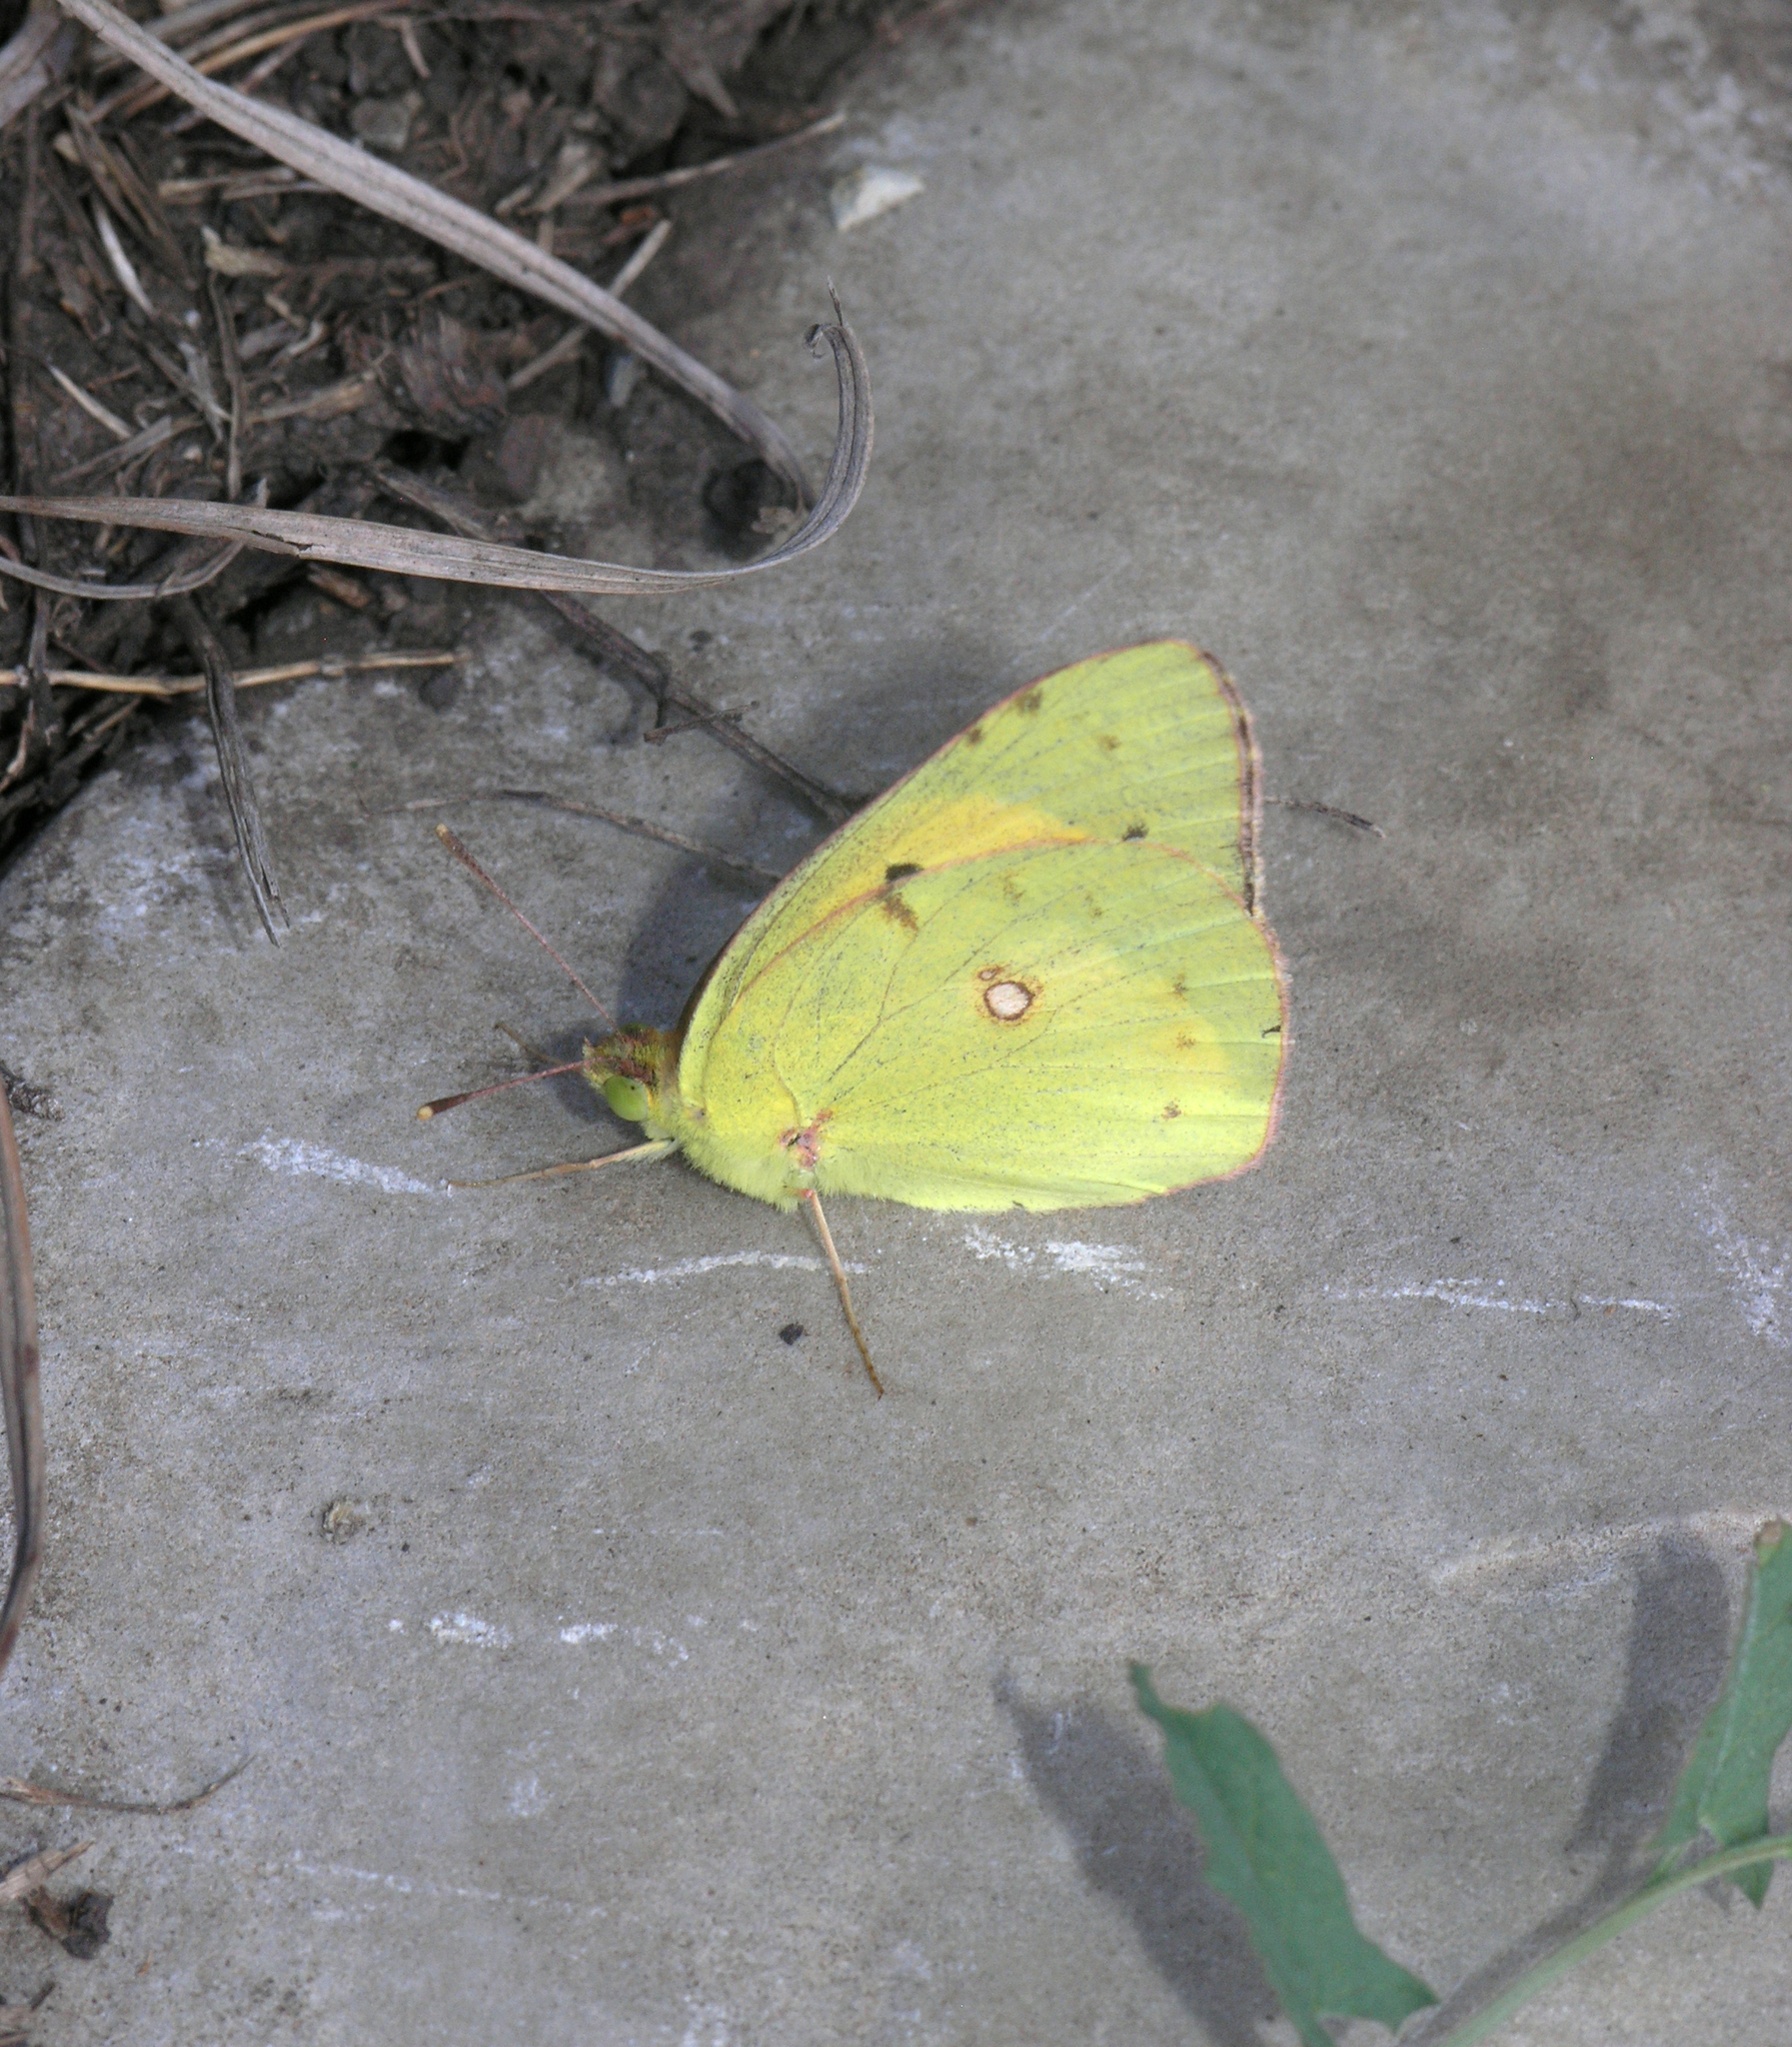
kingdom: Animalia
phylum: Arthropoda
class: Insecta
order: Lepidoptera
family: Pieridae
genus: Colias
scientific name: Colias croceus
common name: Clouded yellow
